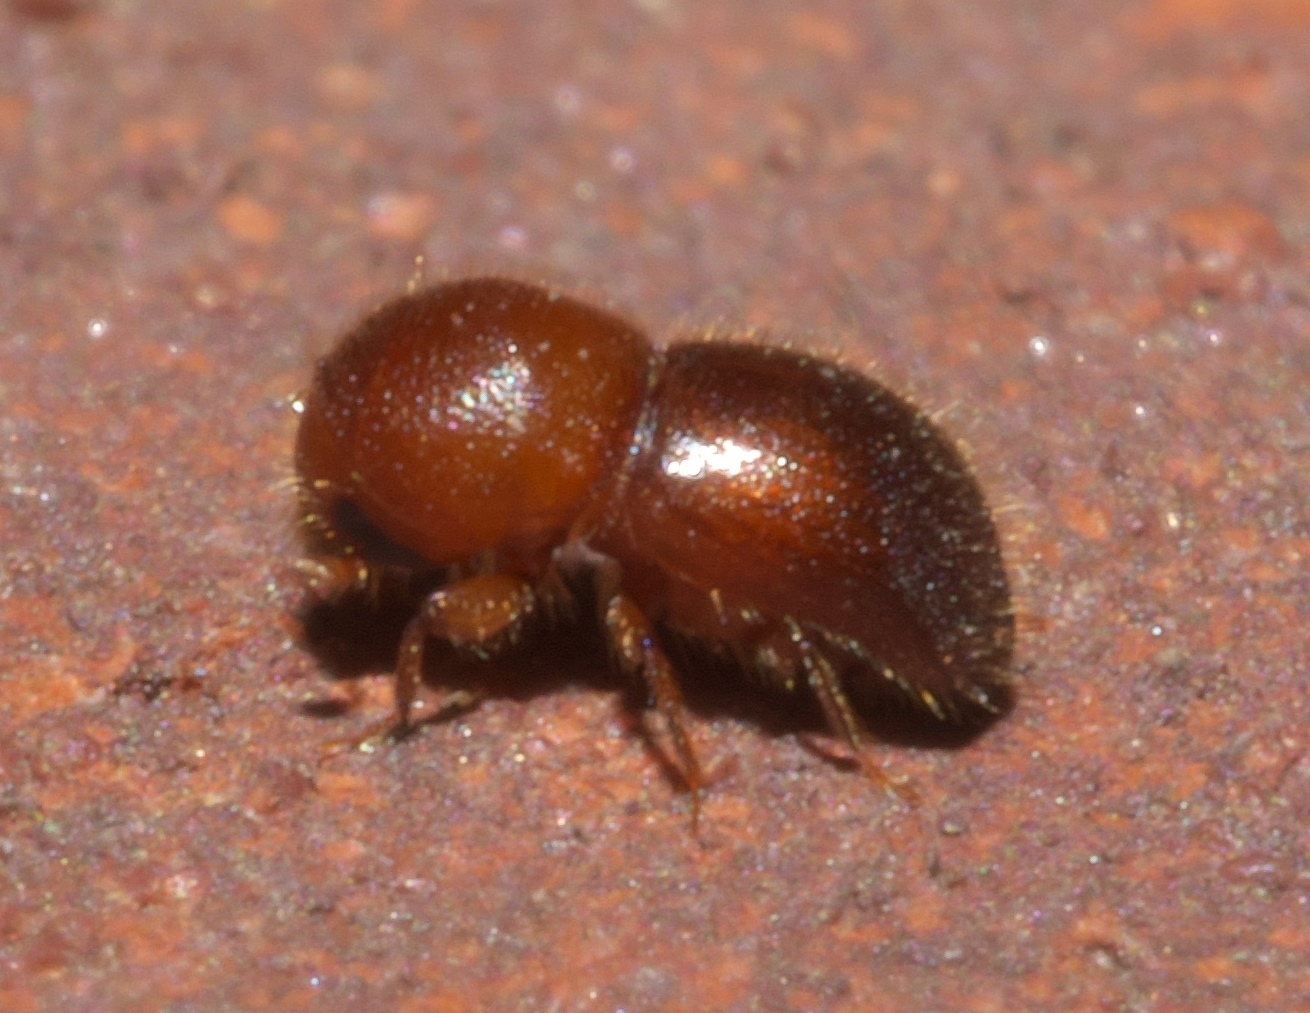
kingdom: Animalia
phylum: Arthropoda
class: Insecta
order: Coleoptera
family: Curculionidae
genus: Xylosandrus
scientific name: Xylosandrus crassiusculus
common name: Granulate ambrosia beetle
